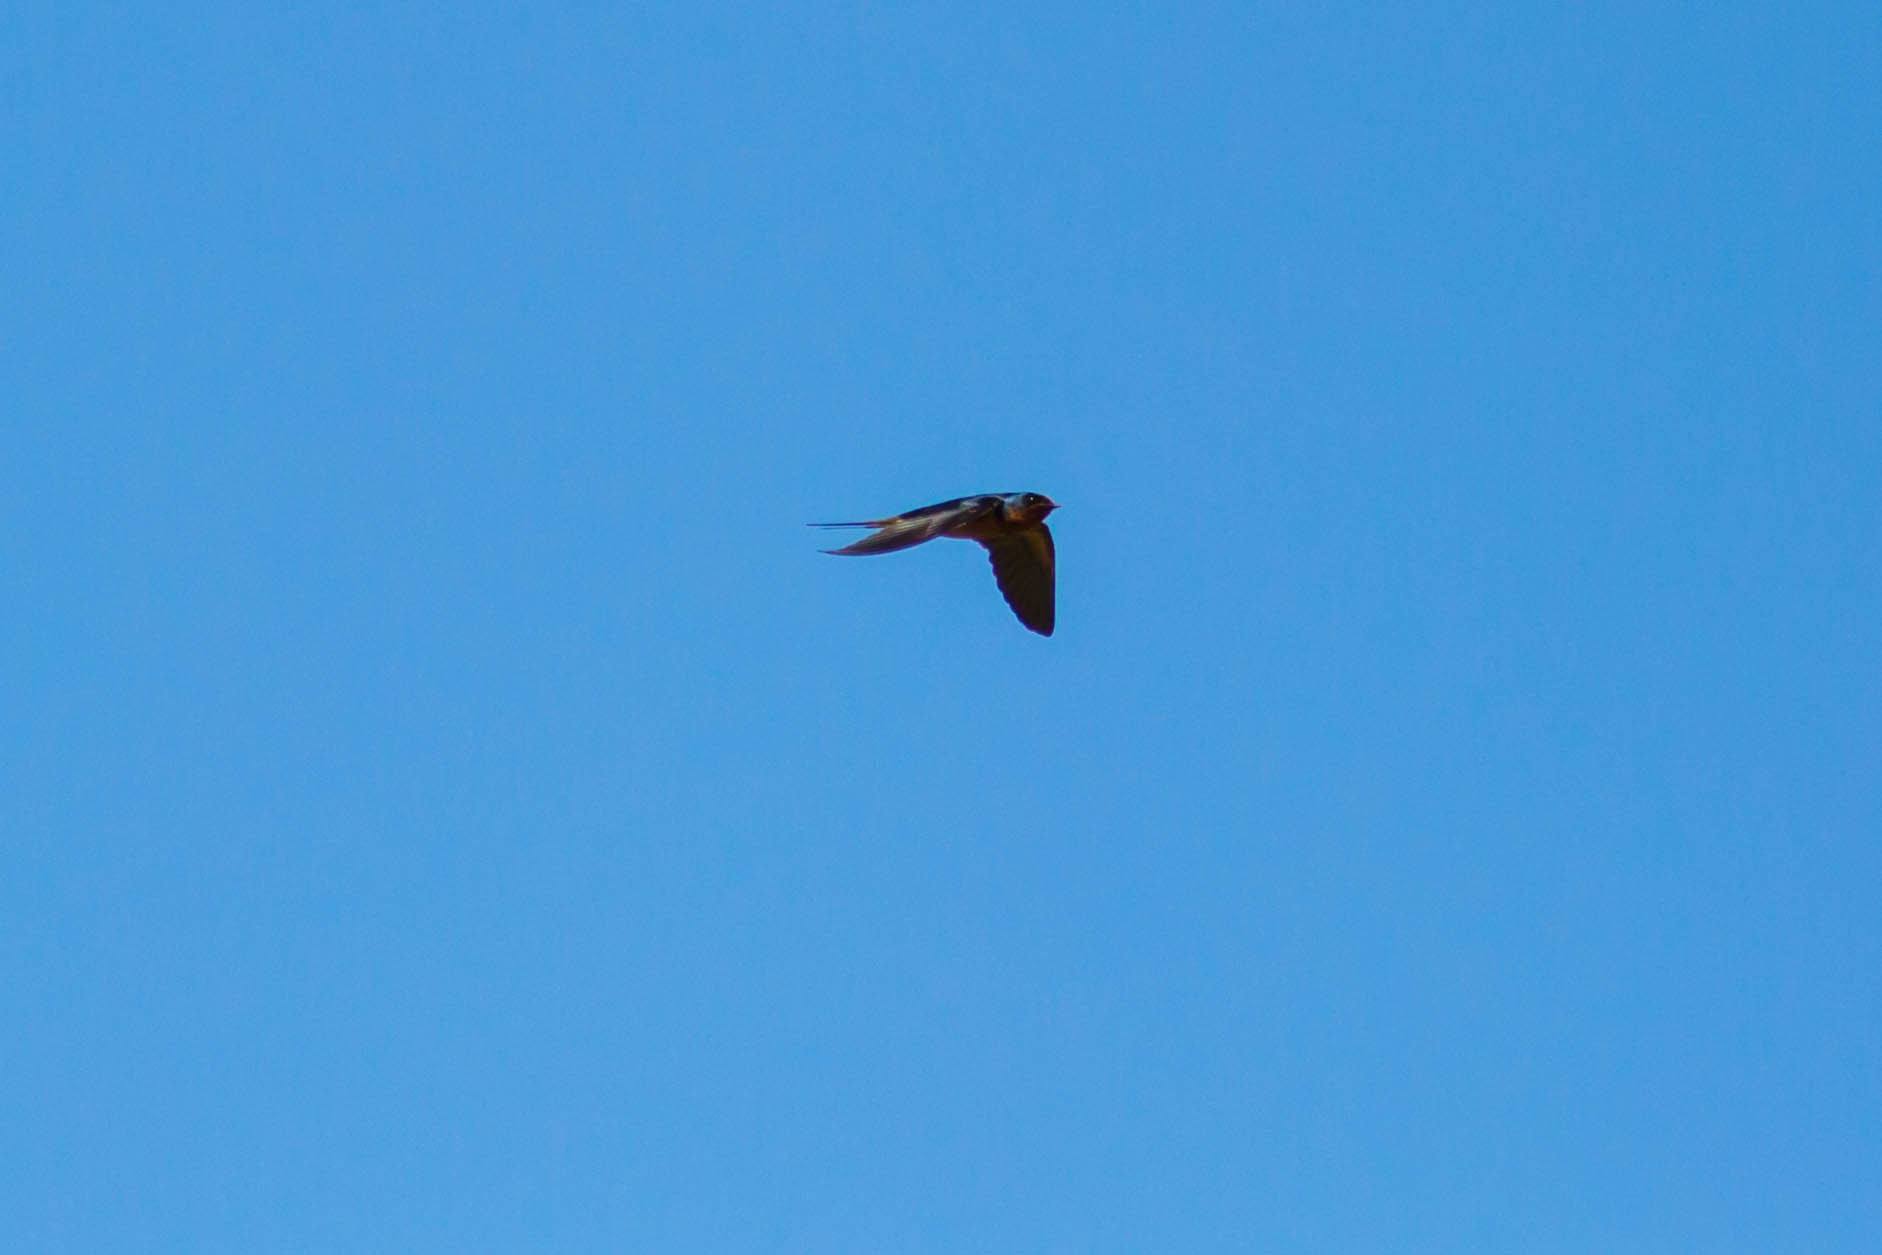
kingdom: Animalia
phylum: Chordata
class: Aves
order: Passeriformes
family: Hirundinidae
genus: Hirundo
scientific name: Hirundo rustica
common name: Barn swallow
